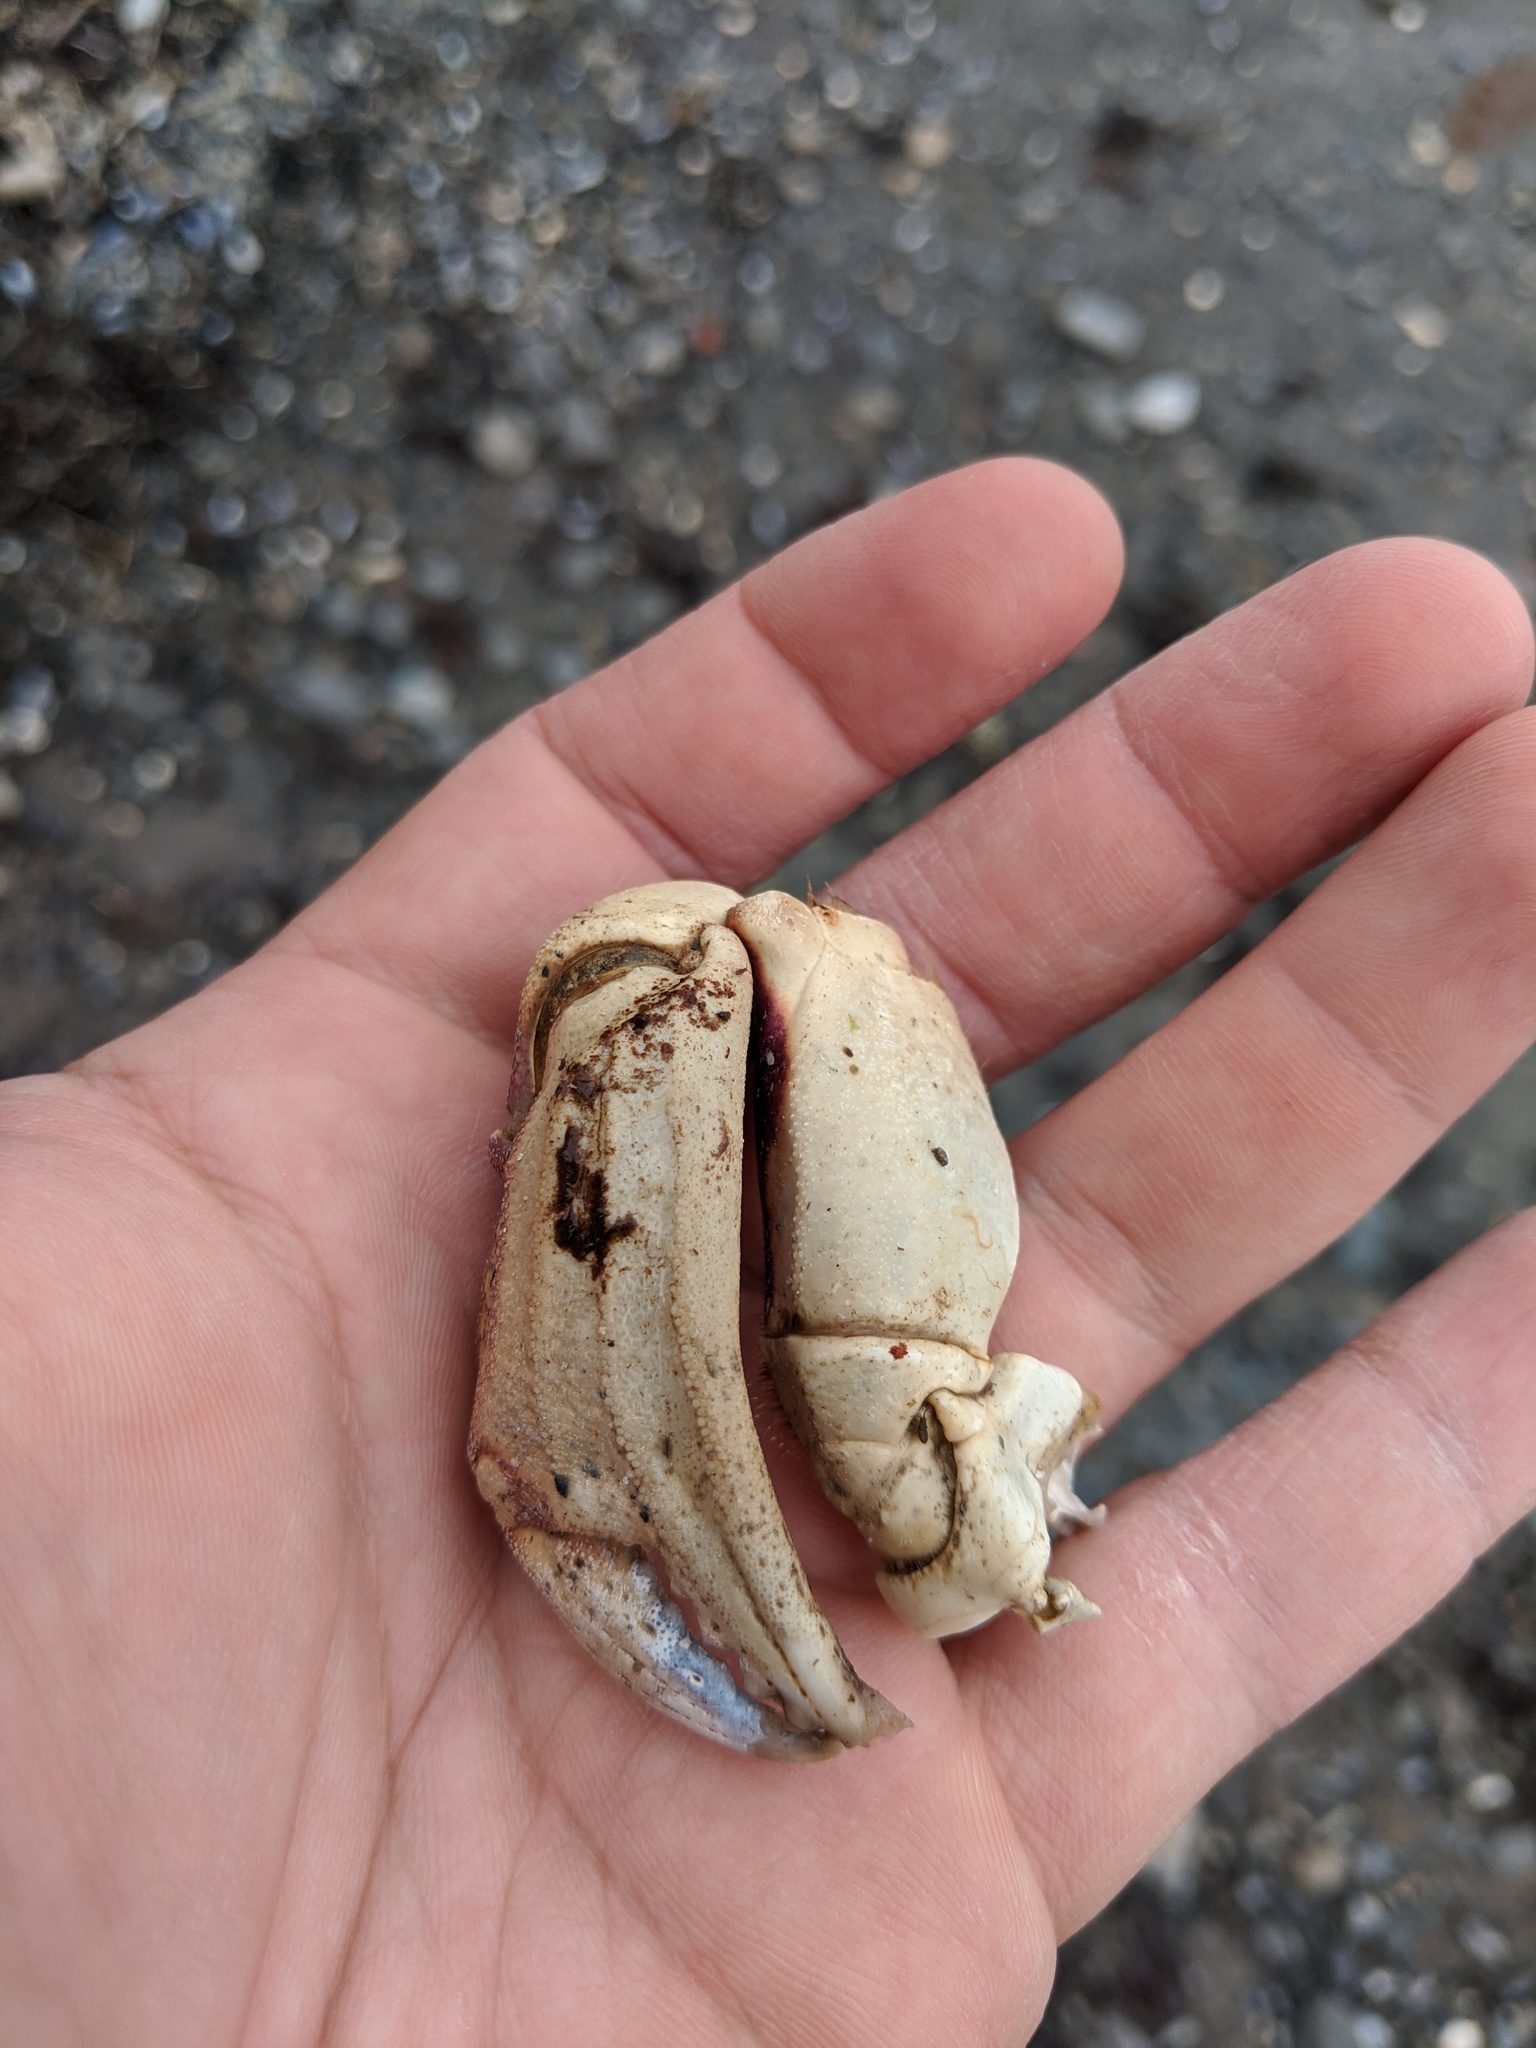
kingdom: Animalia
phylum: Arthropoda
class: Malacostraca
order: Decapoda
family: Cancridae
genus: Cancer
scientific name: Cancer irroratus
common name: Atlantic rock crab
